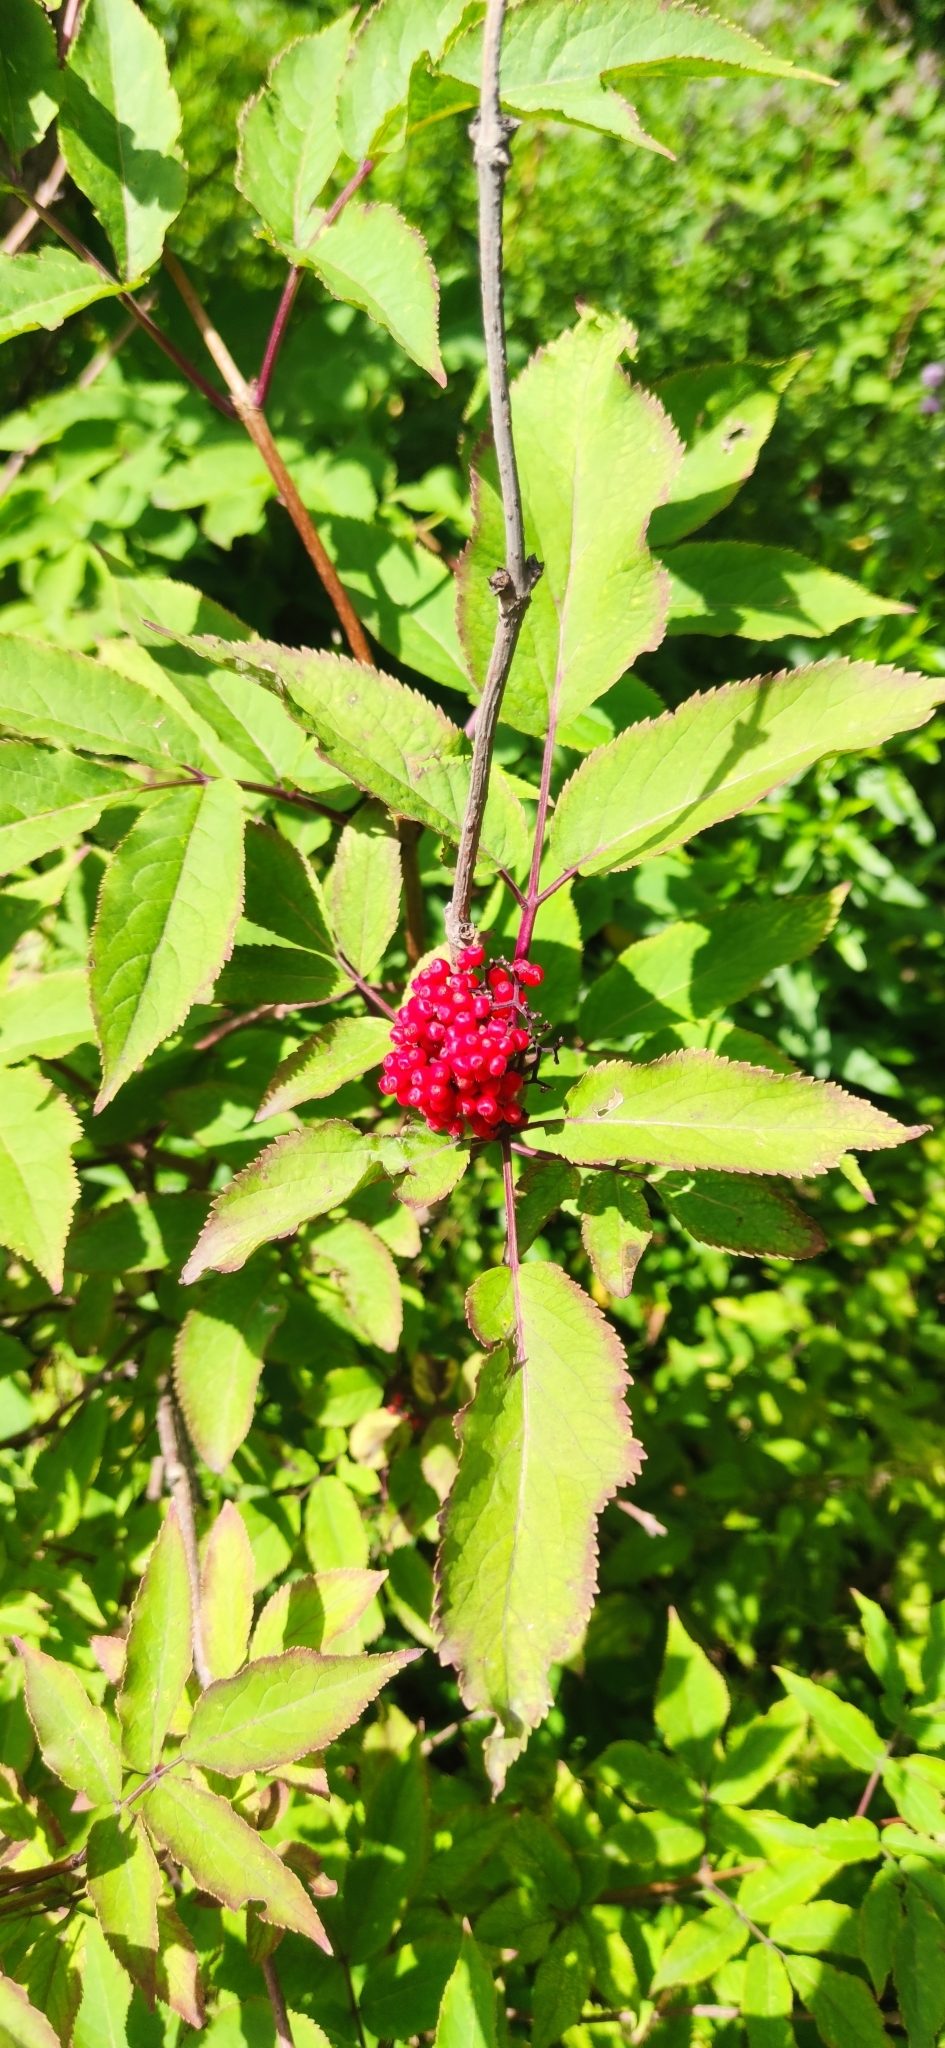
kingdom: Plantae
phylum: Tracheophyta
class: Magnoliopsida
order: Dipsacales
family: Viburnaceae
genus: Sambucus
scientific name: Sambucus racemosa
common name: Red-berried elder
